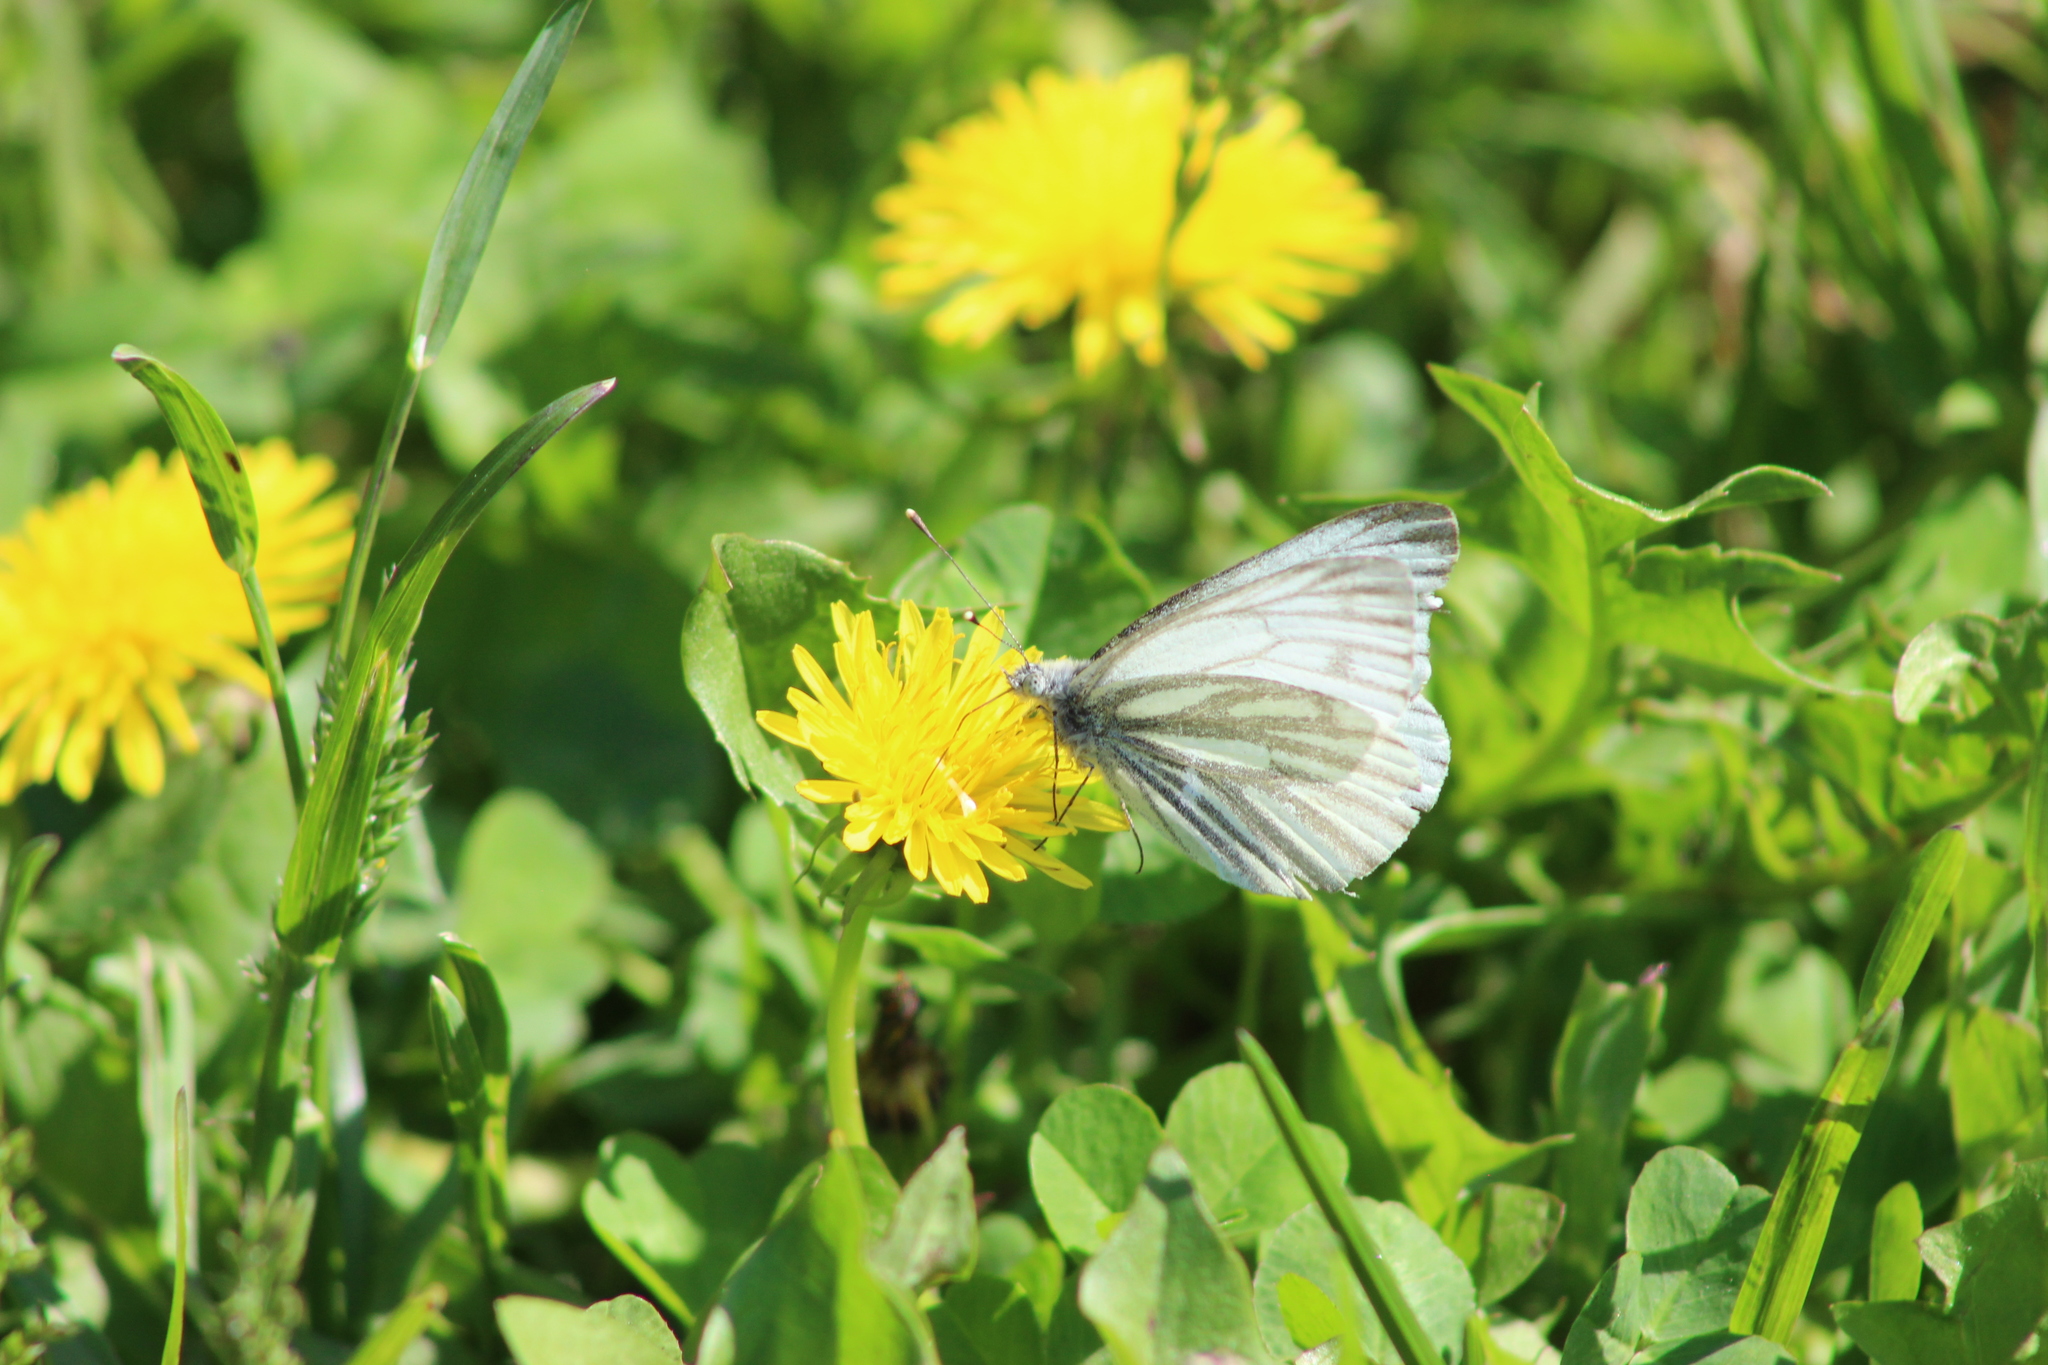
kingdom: Animalia
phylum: Arthropoda
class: Insecta
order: Lepidoptera
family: Pieridae
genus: Pieris
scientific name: Pieris napi
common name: Green-veined white
